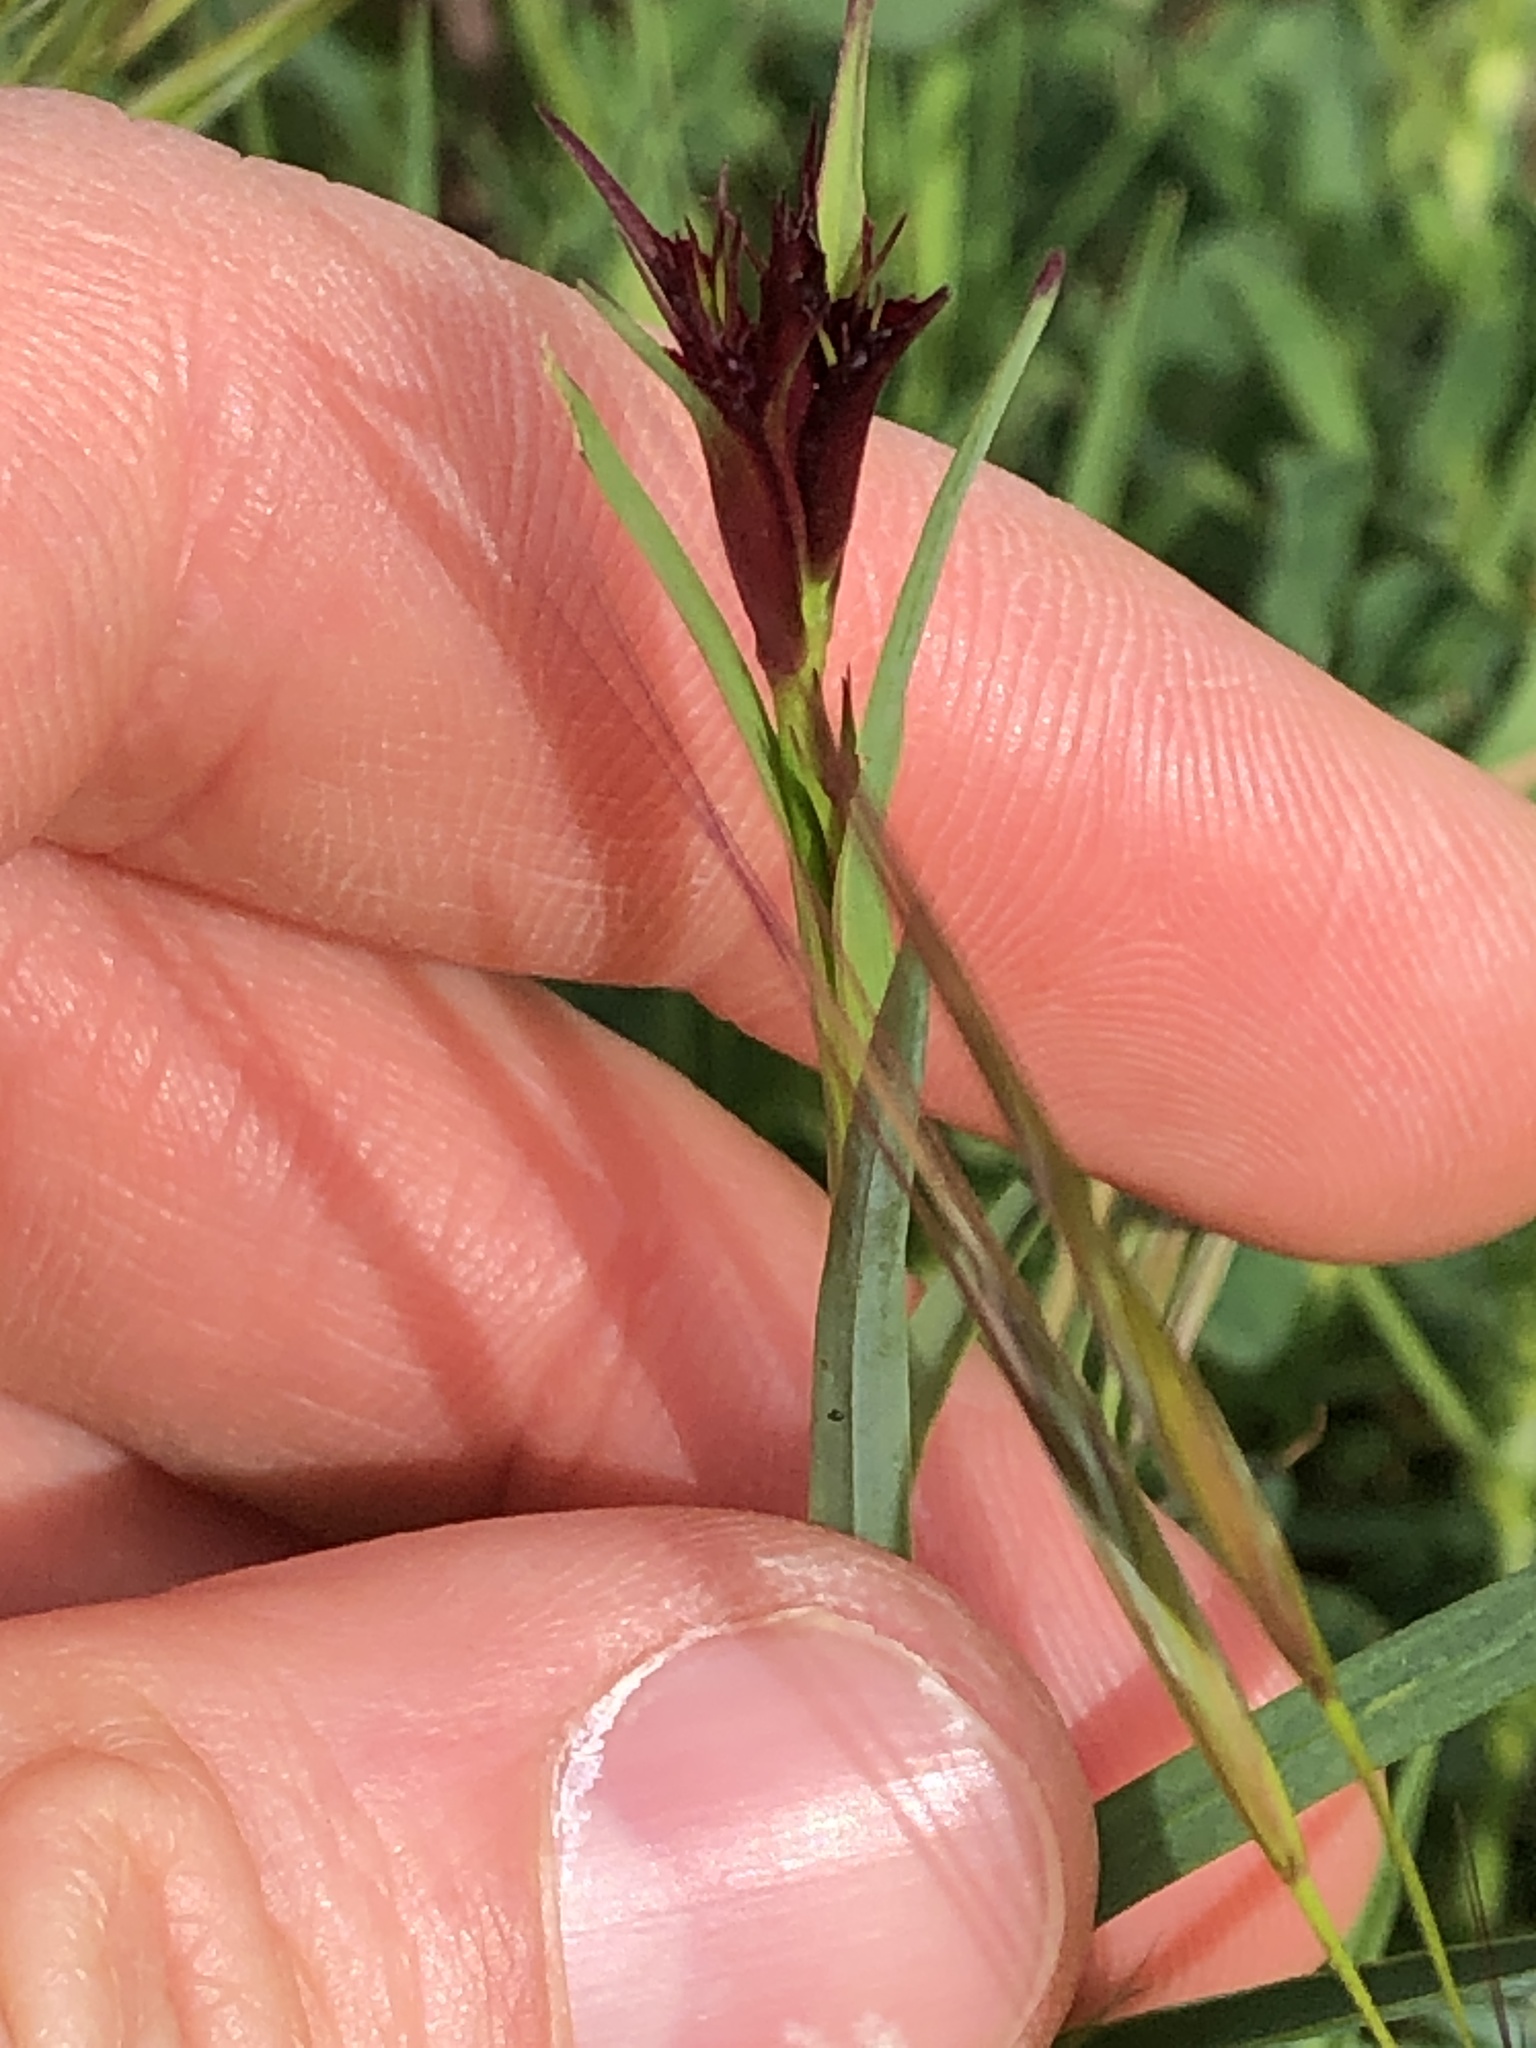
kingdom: Plantae
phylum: Tracheophyta
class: Magnoliopsida
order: Caryophyllales
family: Caryophyllaceae
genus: Dianthus
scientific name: Dianthus carthusianorum
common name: Carthusian pink
